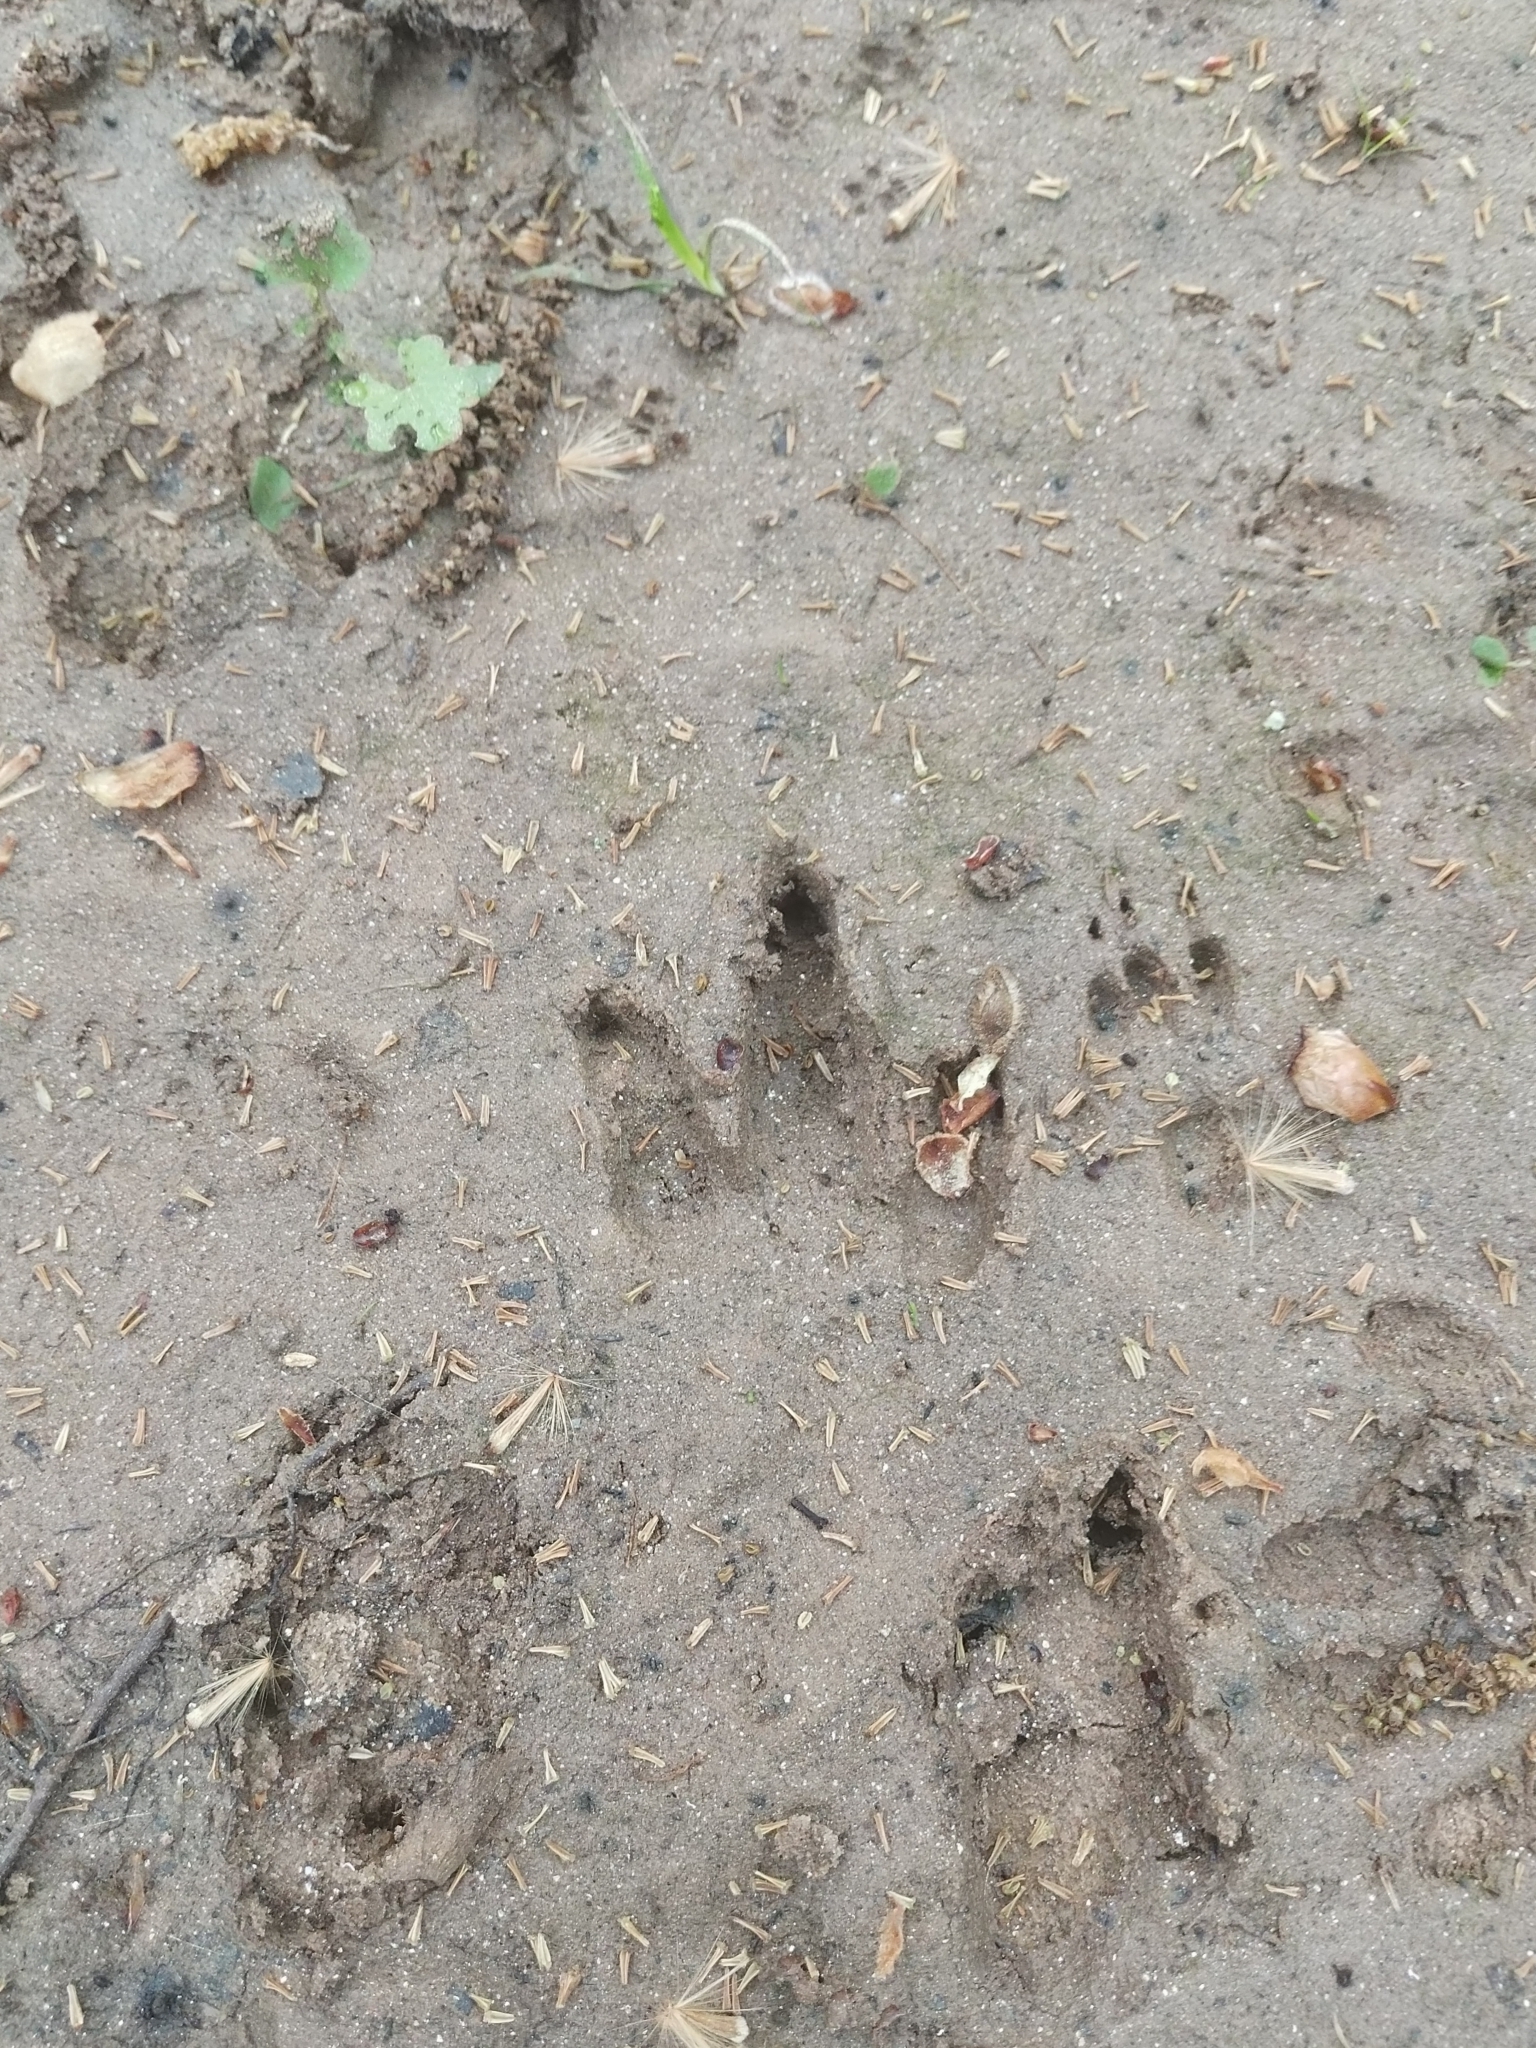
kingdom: Animalia
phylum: Chordata
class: Mammalia
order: Cingulata
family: Dasypodidae
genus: Dasypus
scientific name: Dasypus novemcinctus
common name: Nine-banded armadillo
